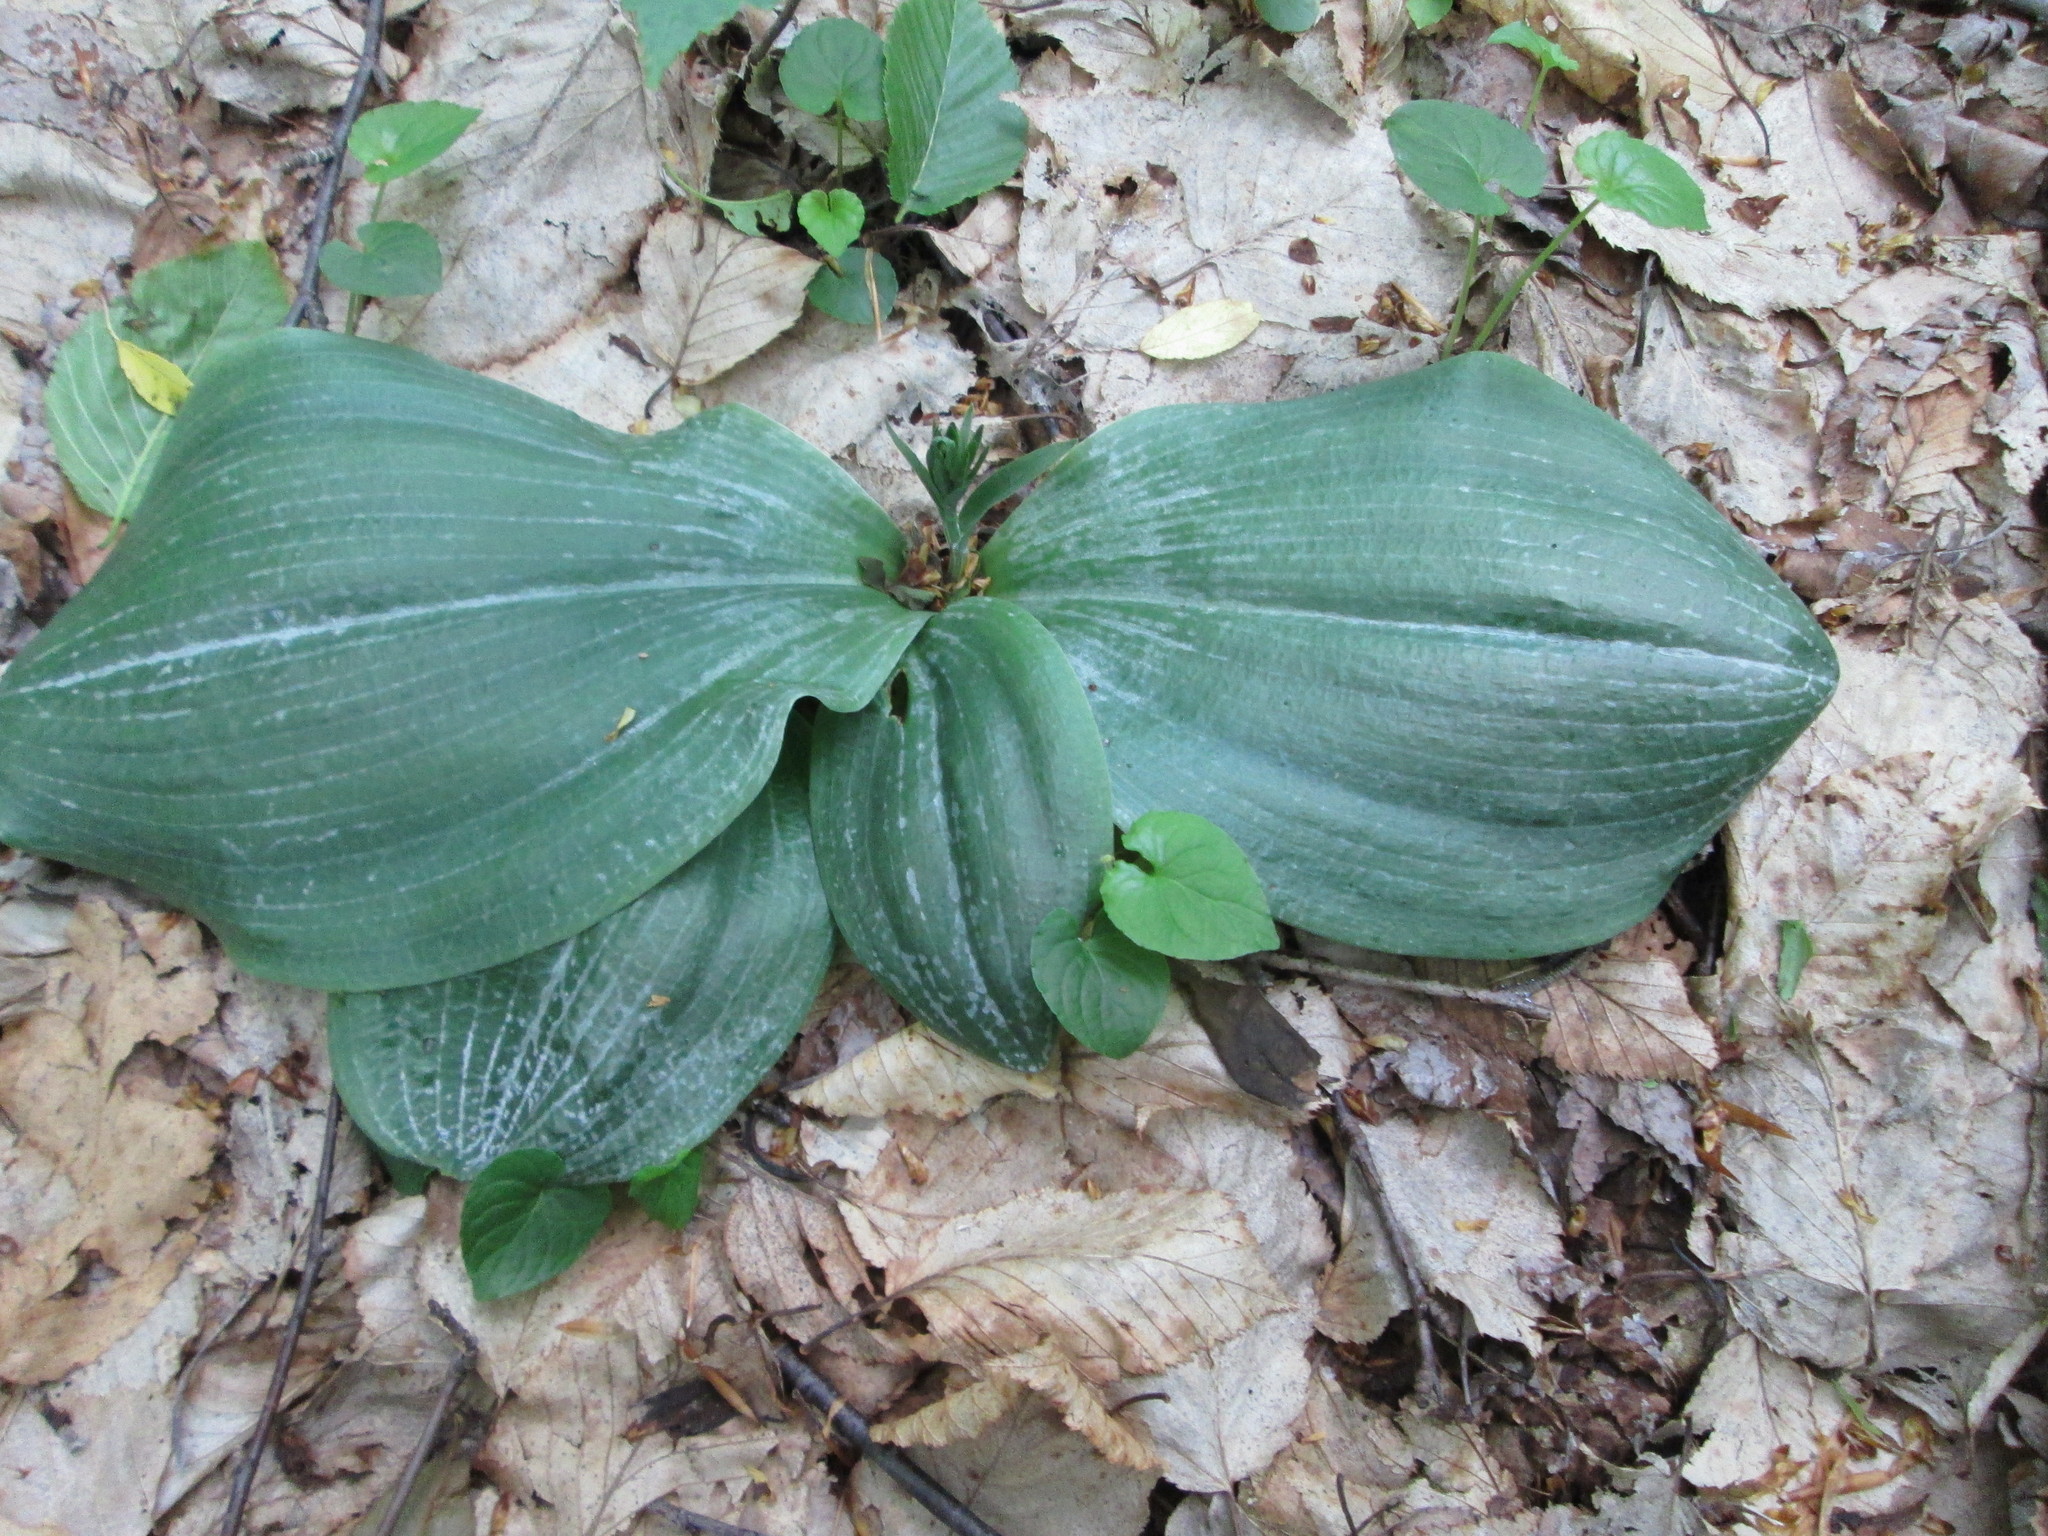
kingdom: Plantae
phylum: Tracheophyta
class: Liliopsida
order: Asparagales
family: Orchidaceae
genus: Platanthera
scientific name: Platanthera orbiculata
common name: Large round-leaved orchid
